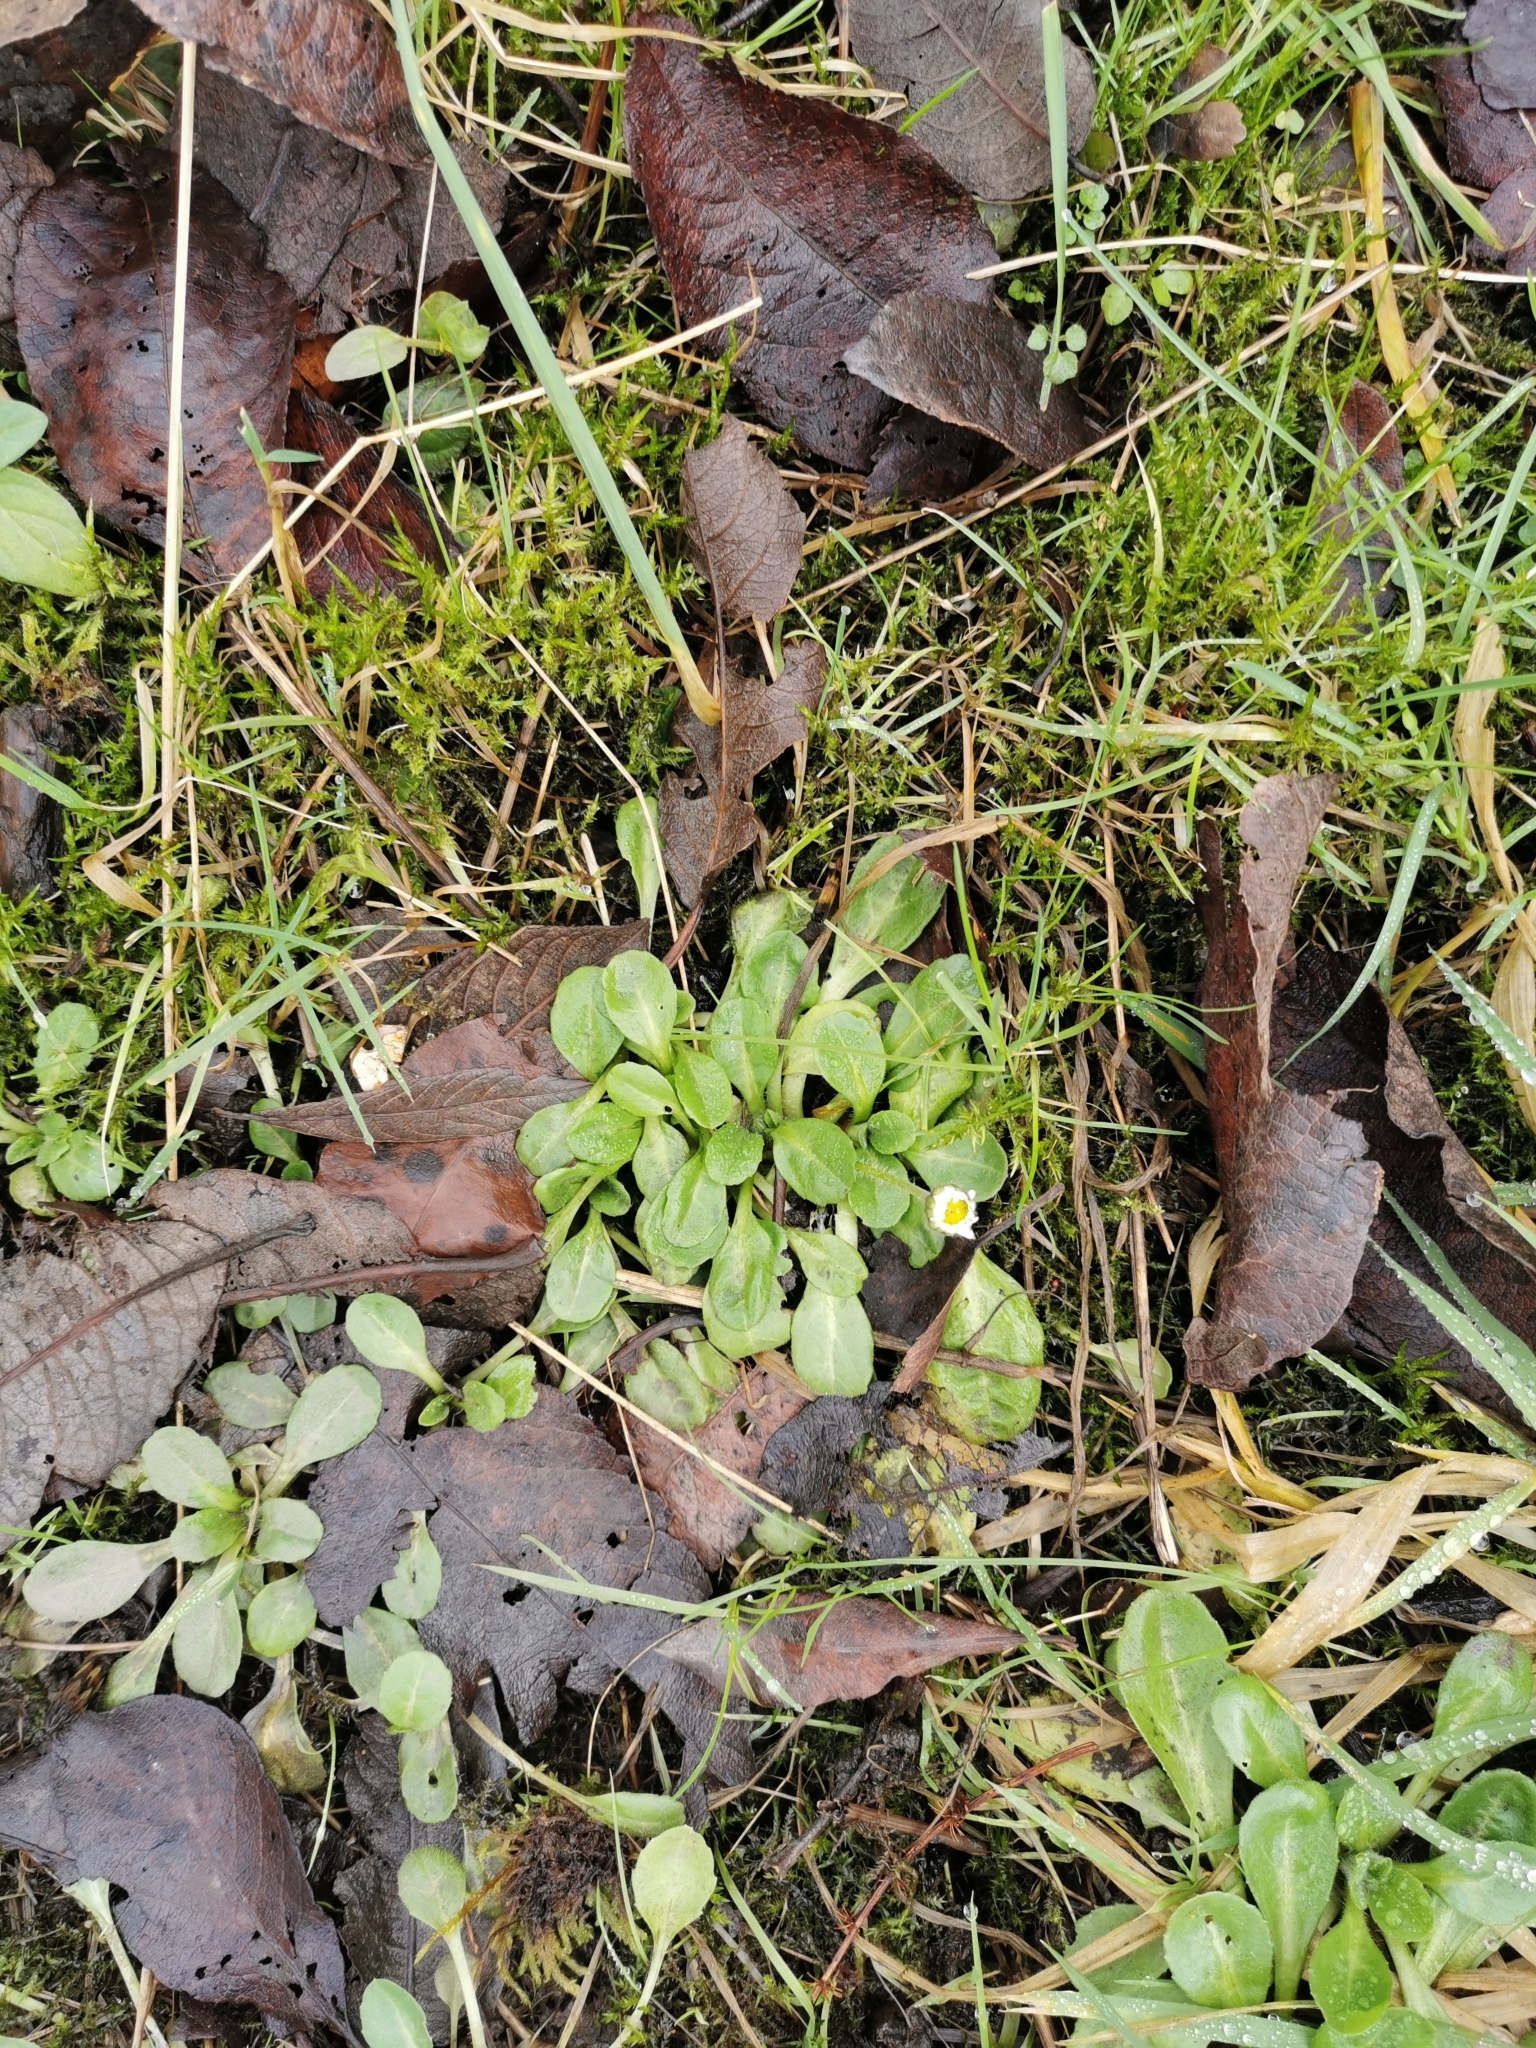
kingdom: Plantae
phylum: Tracheophyta
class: Magnoliopsida
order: Asterales
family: Asteraceae
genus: Bellis
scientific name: Bellis perennis
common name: Lawndaisy
